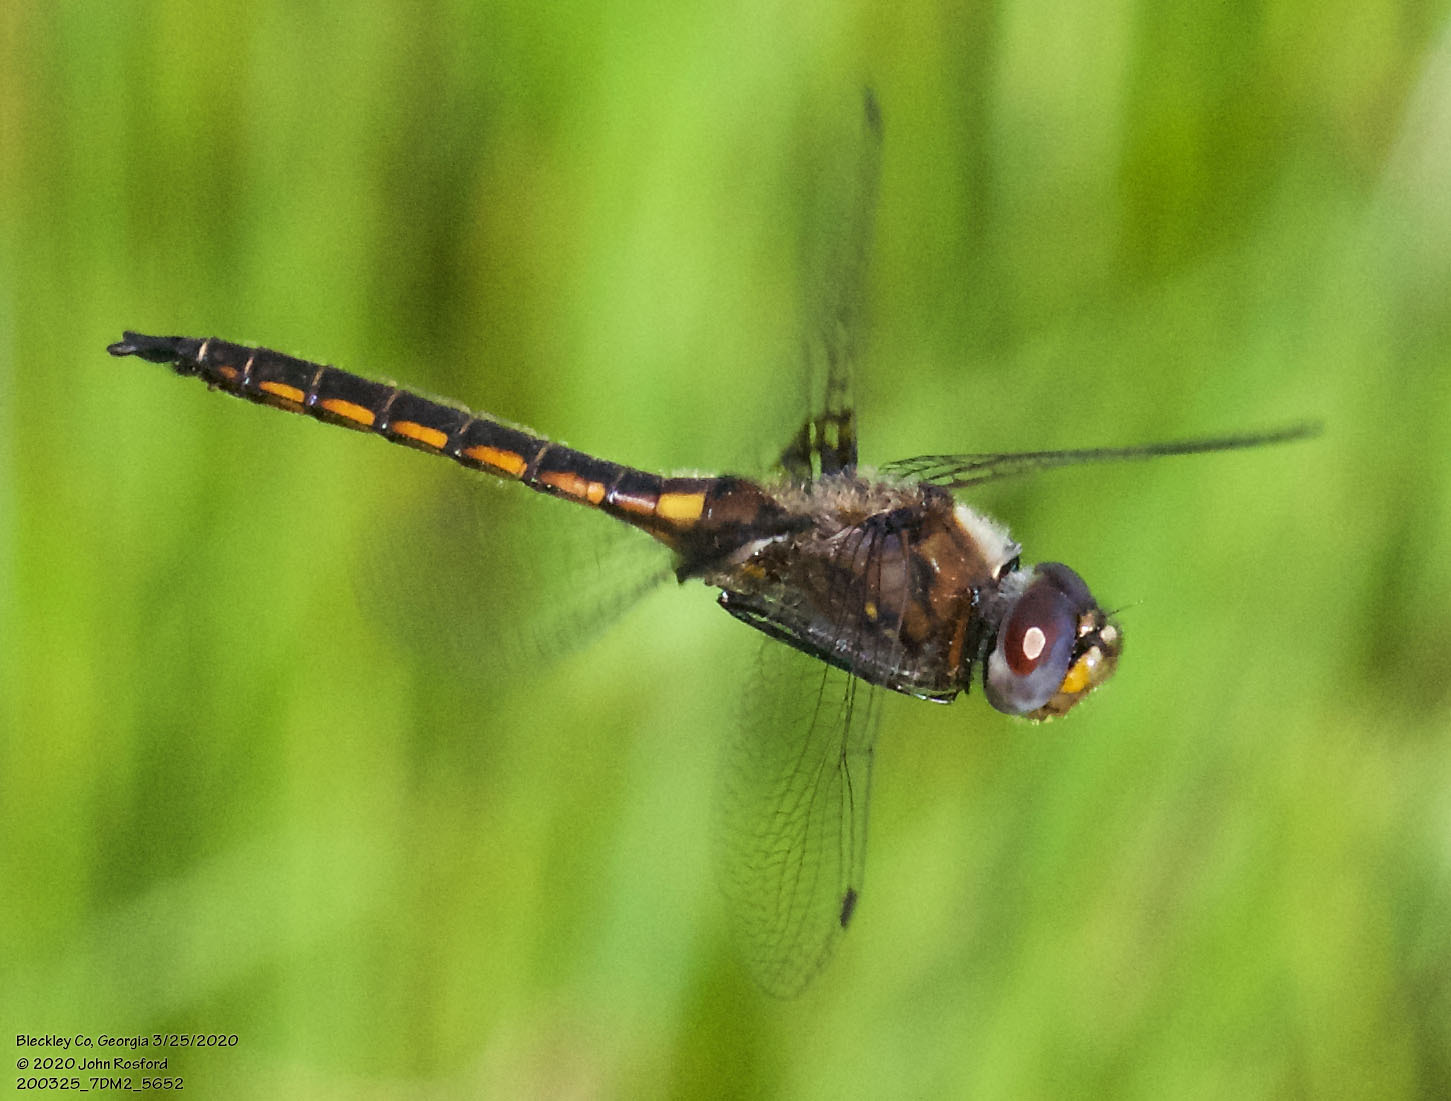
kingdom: Animalia
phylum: Arthropoda
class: Insecta
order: Odonata
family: Corduliidae
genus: Epitheca
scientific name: Epitheca cynosura
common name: Common baskettail
